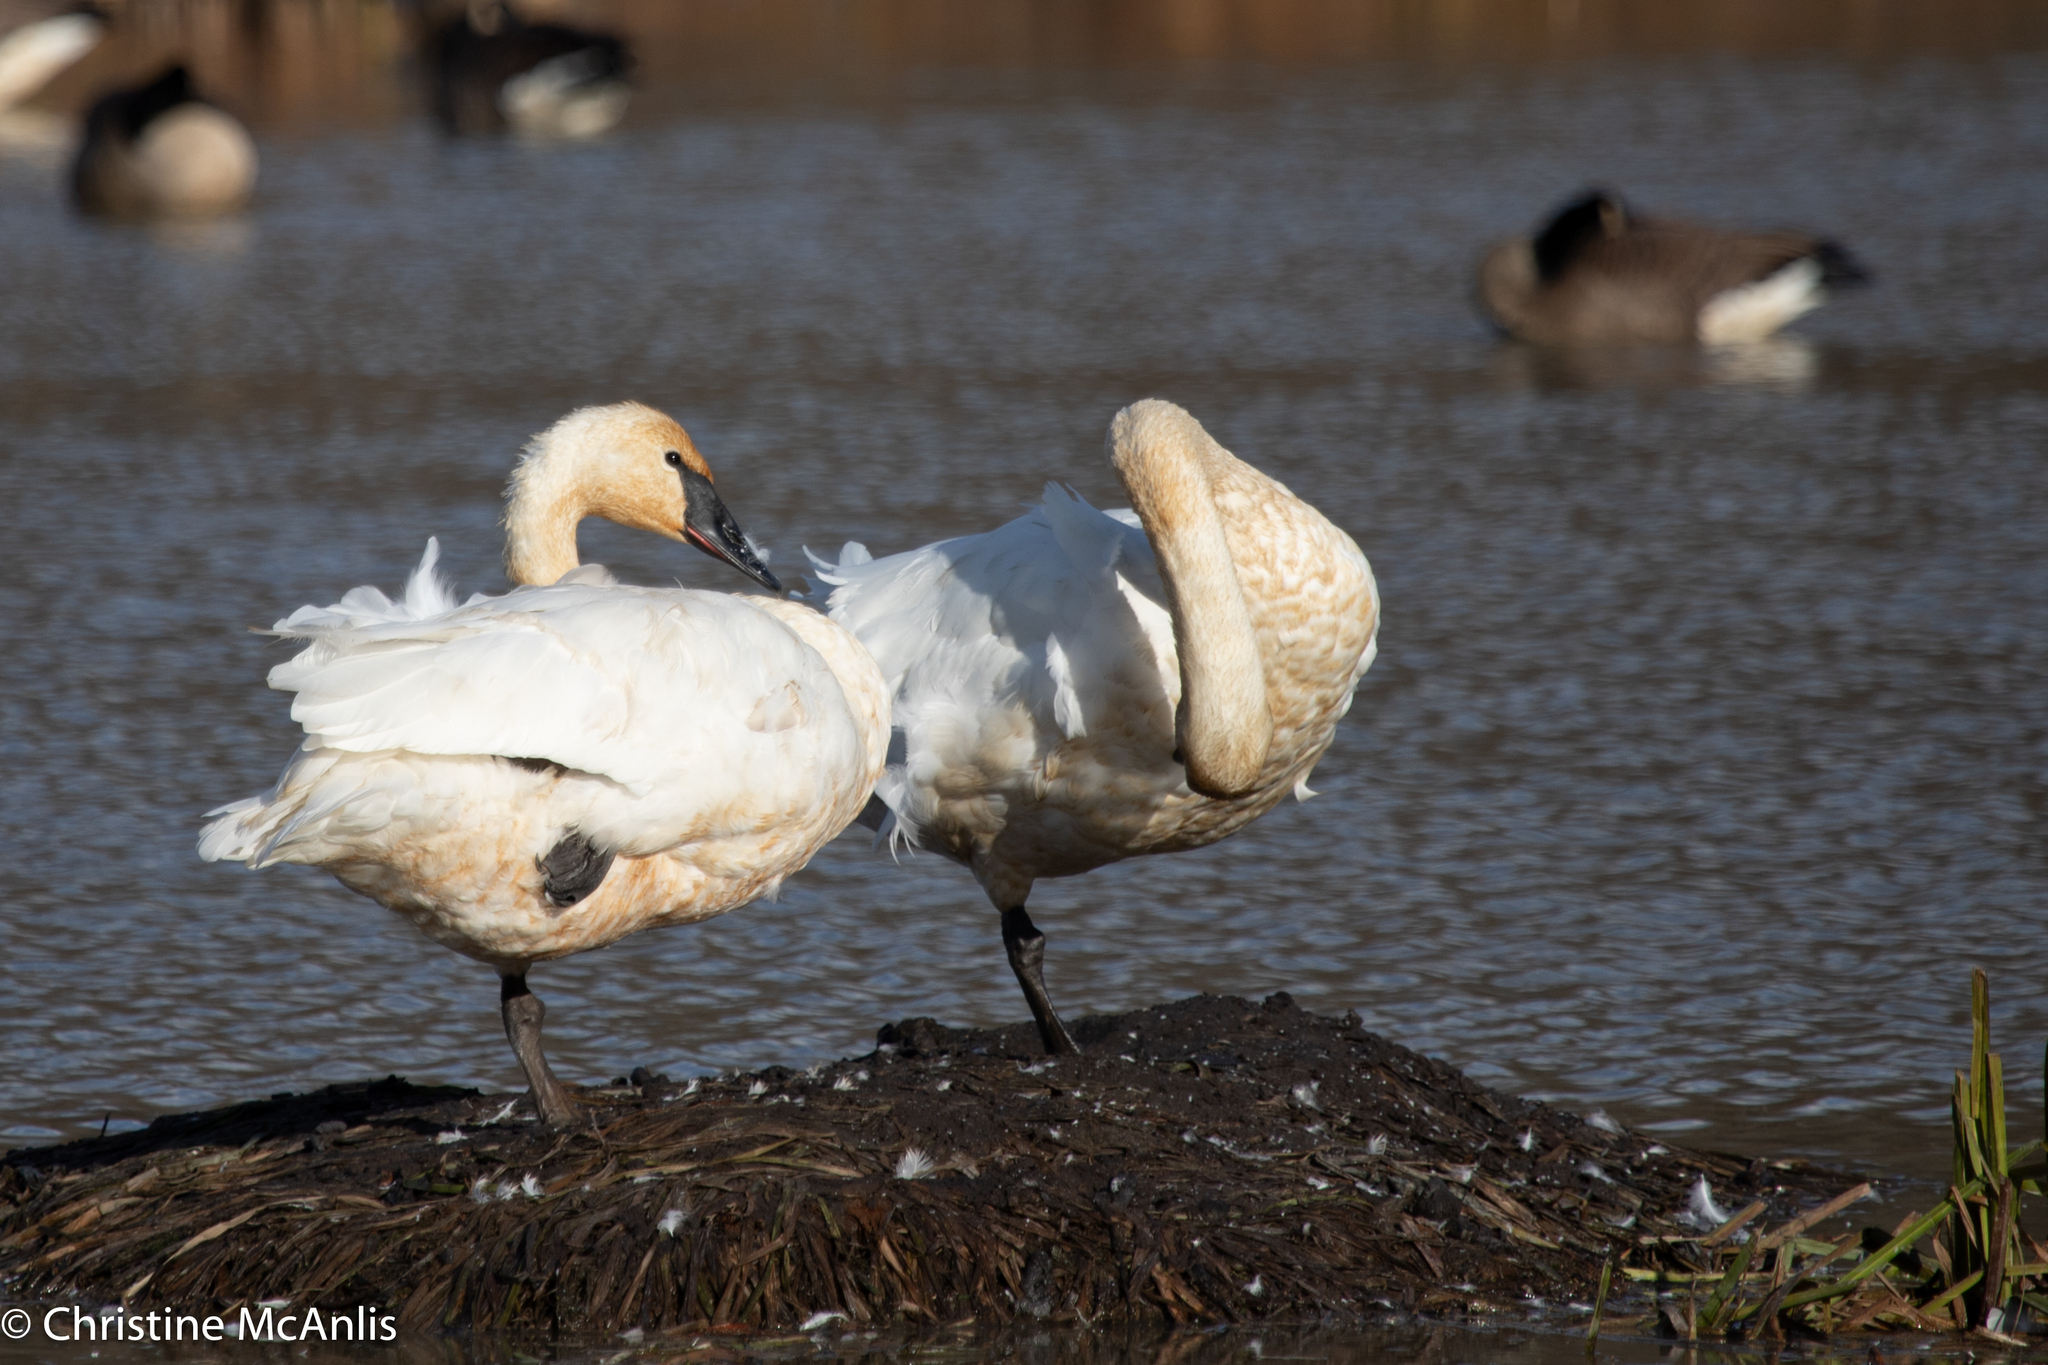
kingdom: Animalia
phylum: Chordata
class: Aves
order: Anseriformes
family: Anatidae
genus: Cygnus
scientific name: Cygnus buccinator
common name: Trumpeter swan
